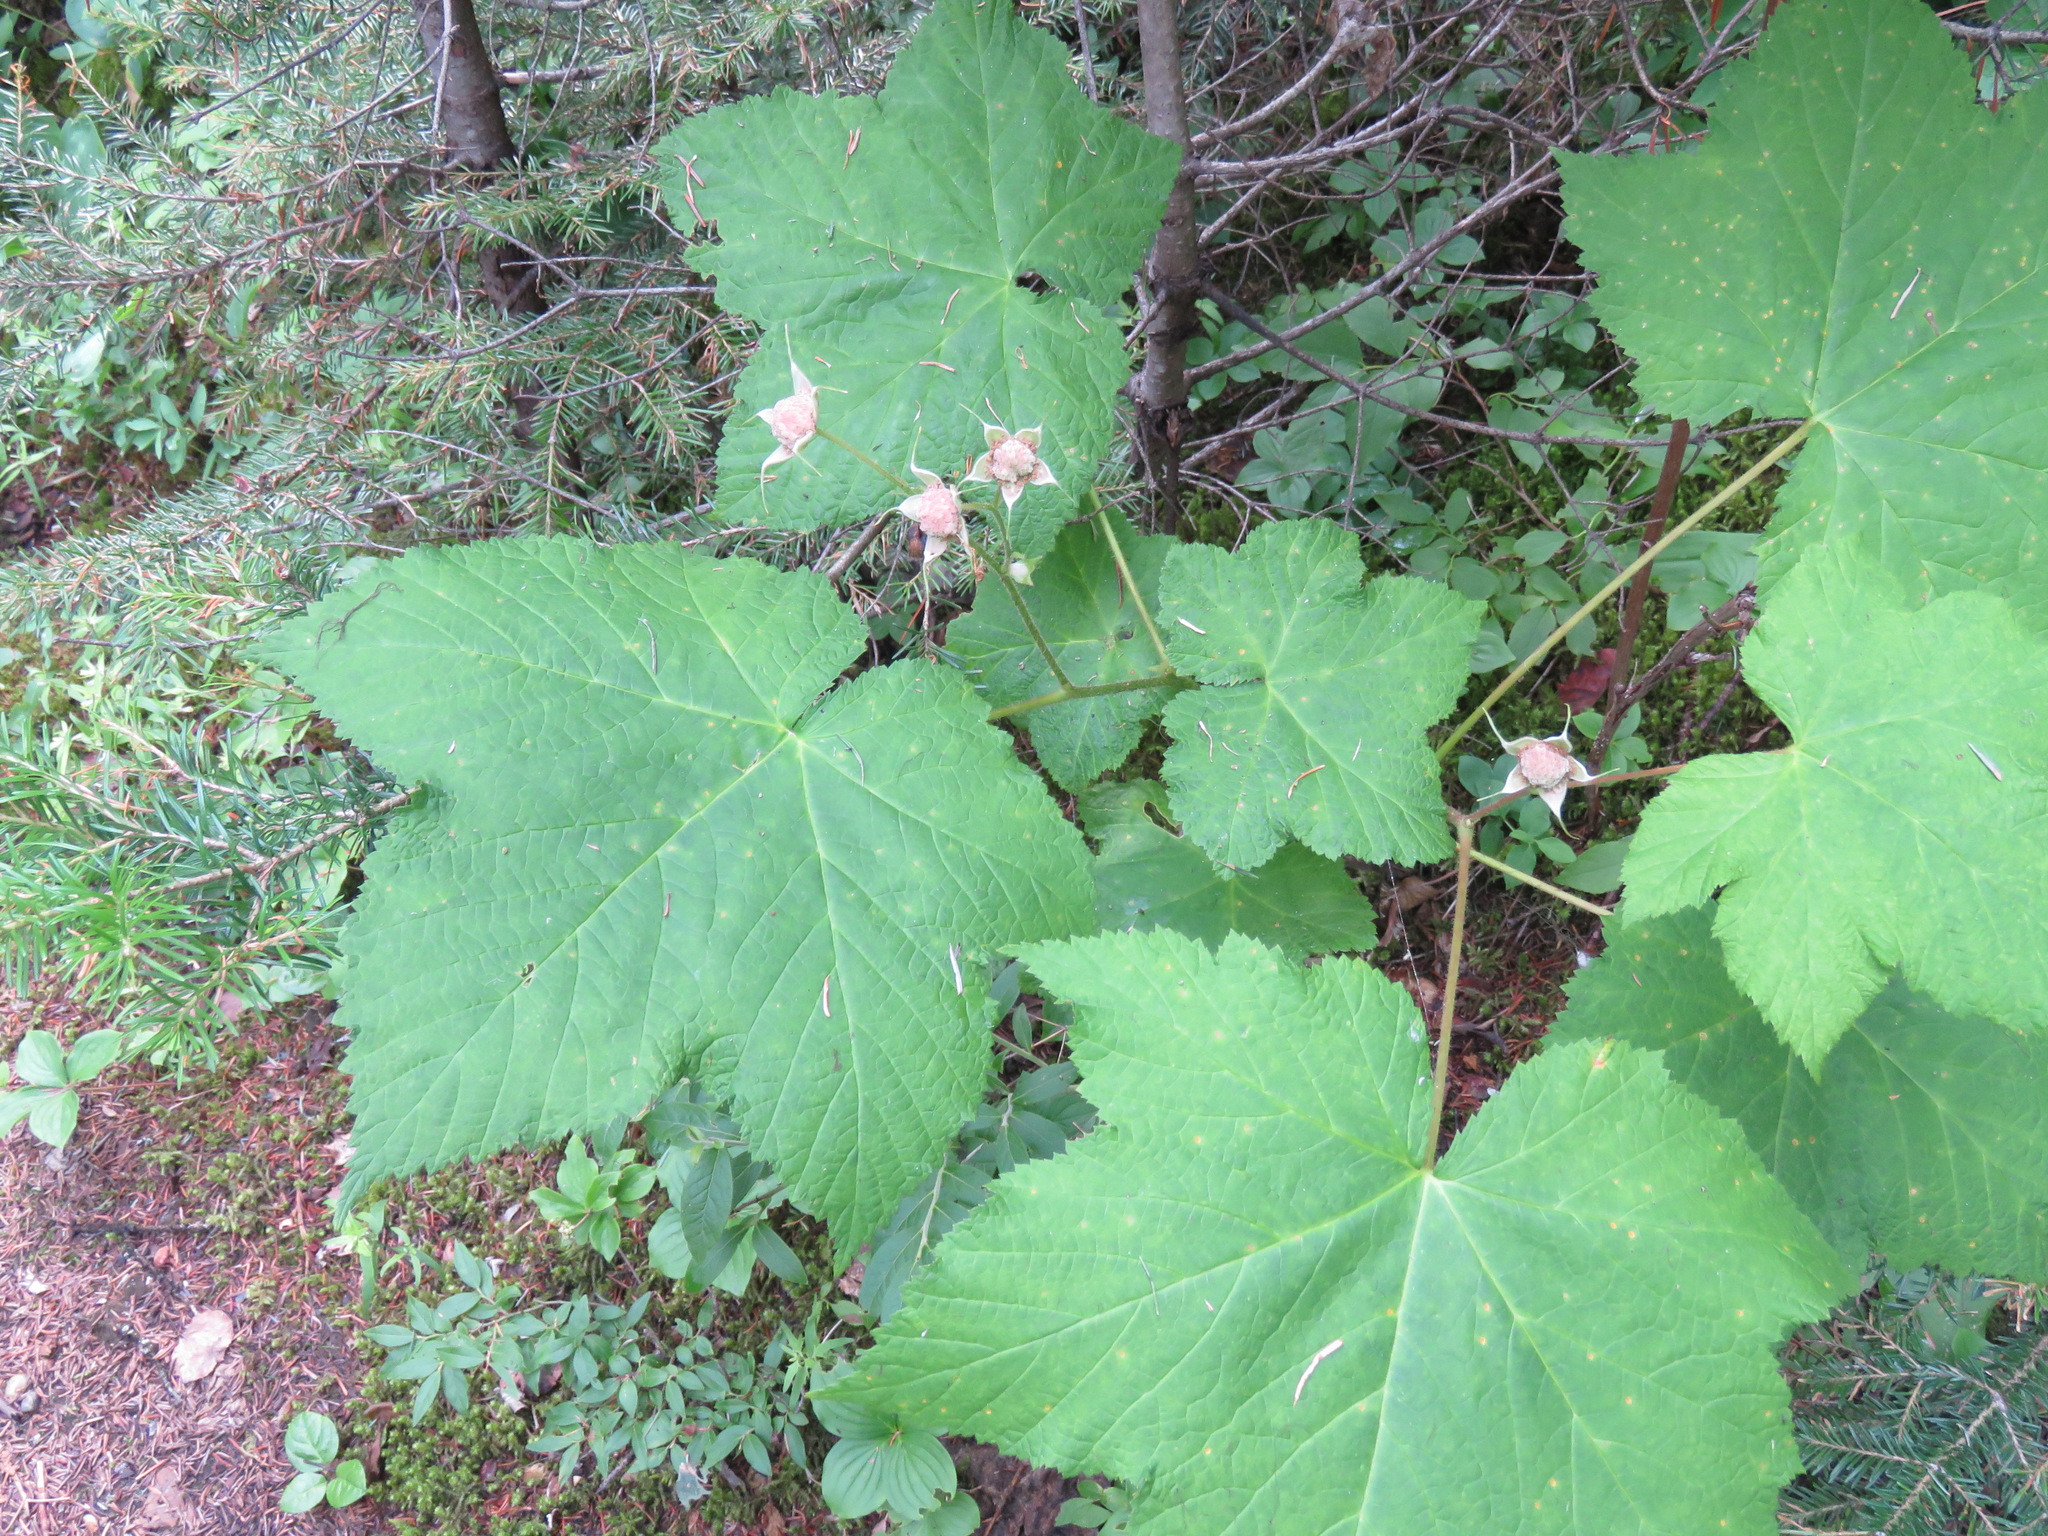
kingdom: Plantae
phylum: Tracheophyta
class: Magnoliopsida
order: Rosales
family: Rosaceae
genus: Rubus
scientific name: Rubus parviflorus
